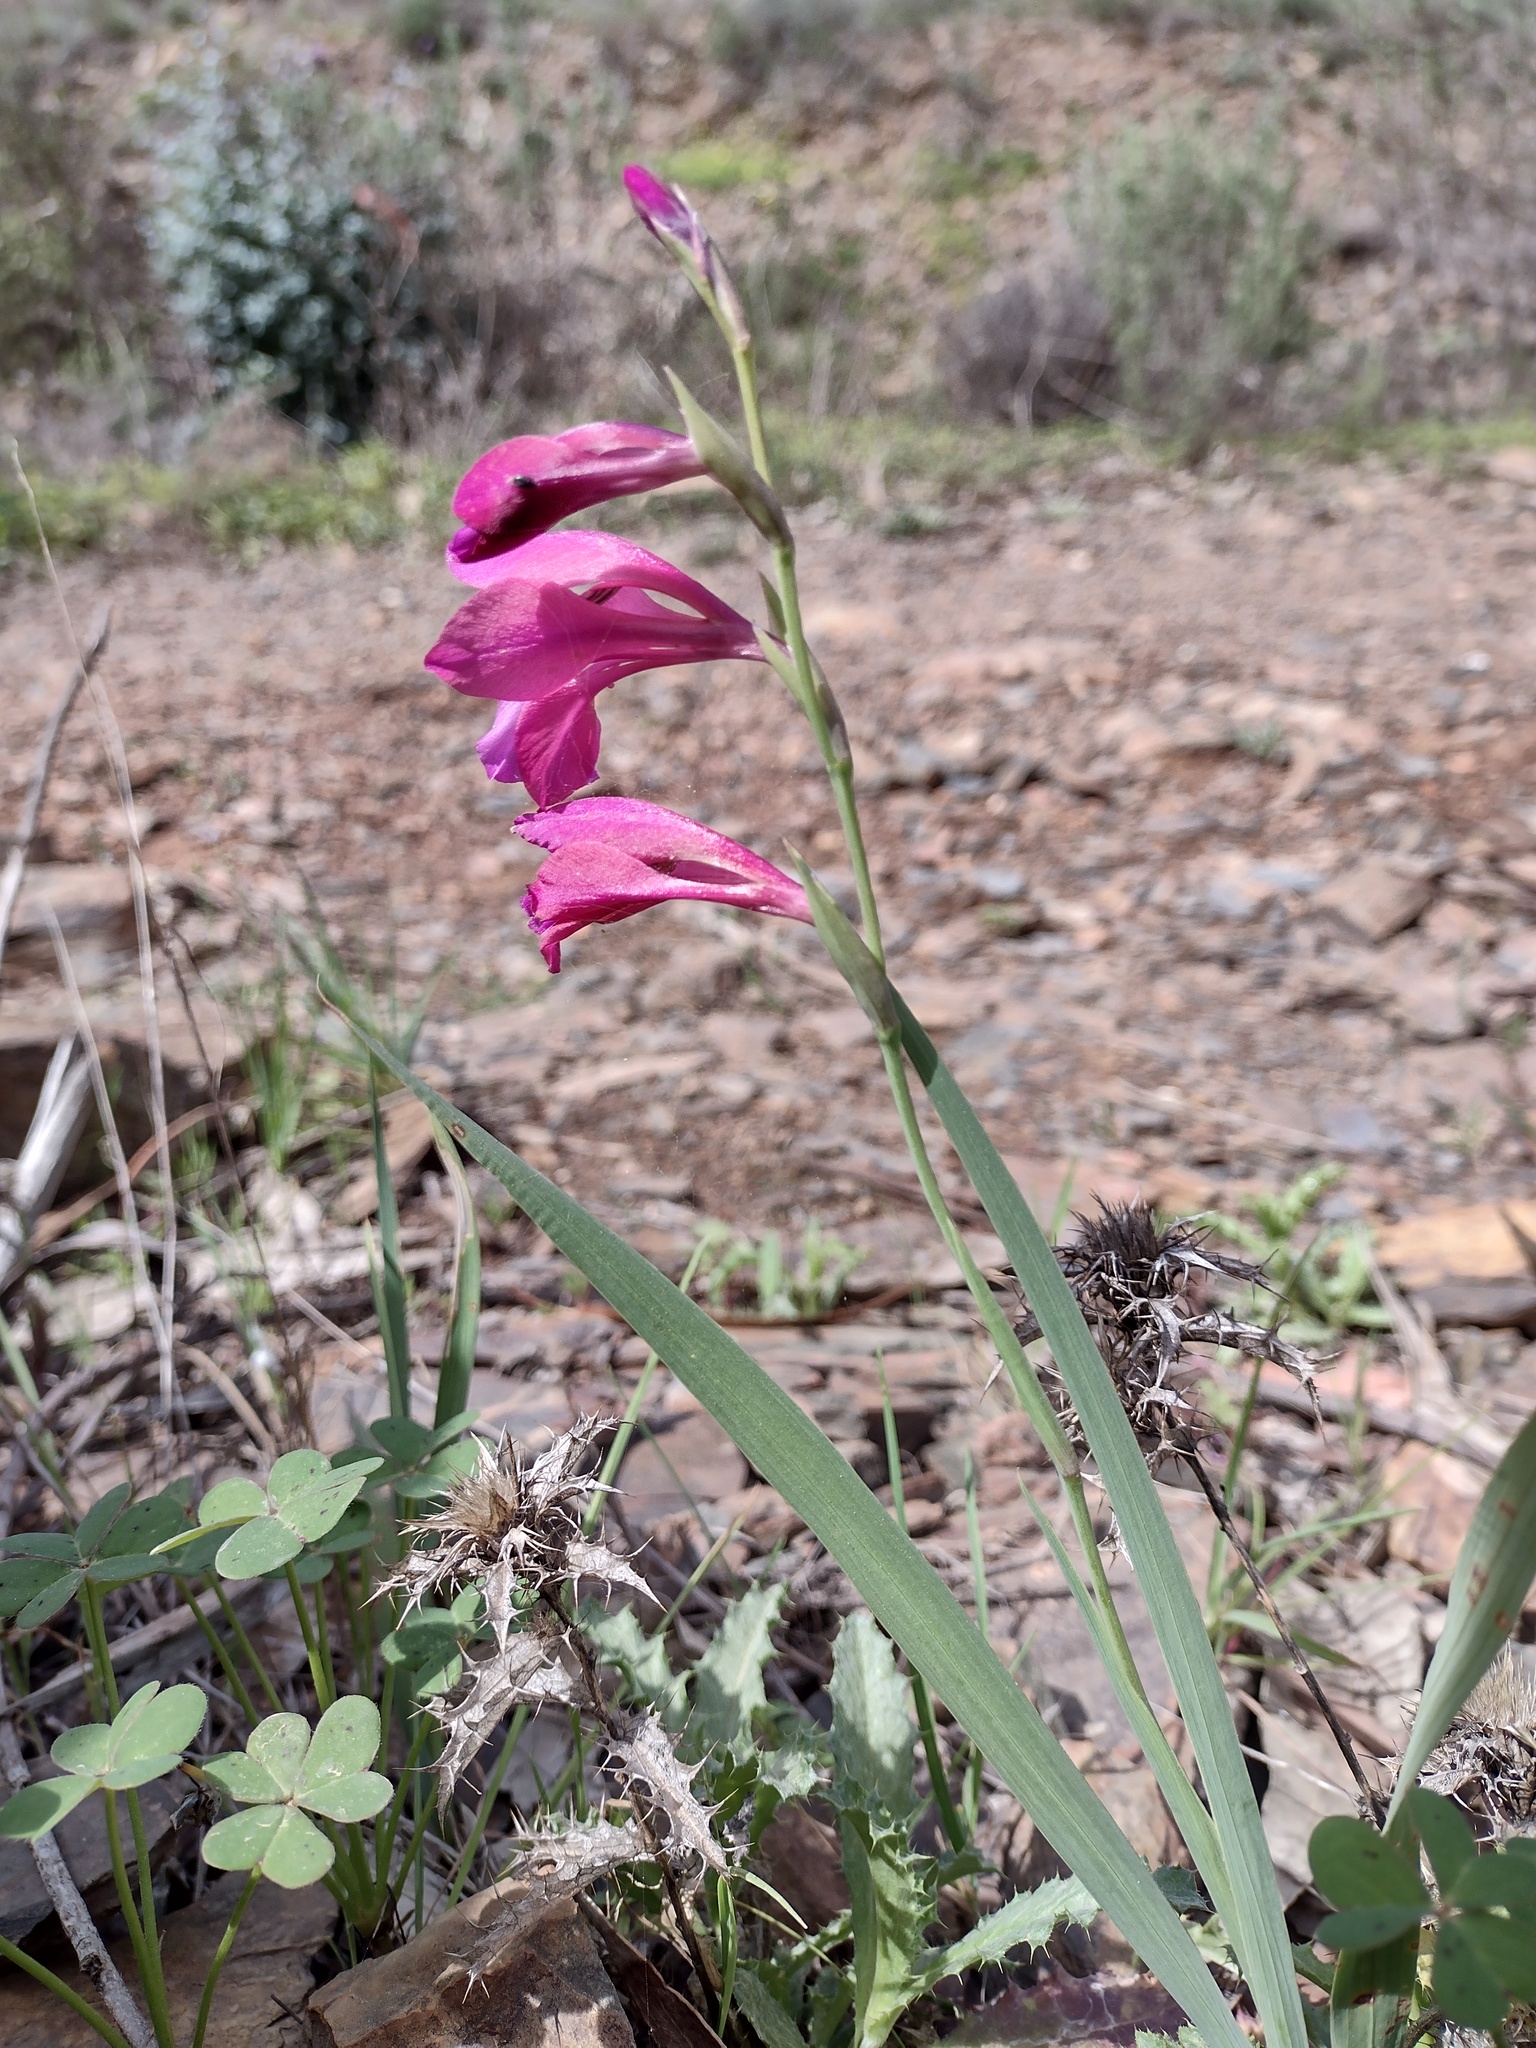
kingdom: Plantae
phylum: Tracheophyta
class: Liliopsida
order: Asparagales
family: Iridaceae
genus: Gladiolus
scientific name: Gladiolus italicus
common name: Field gladiolus
